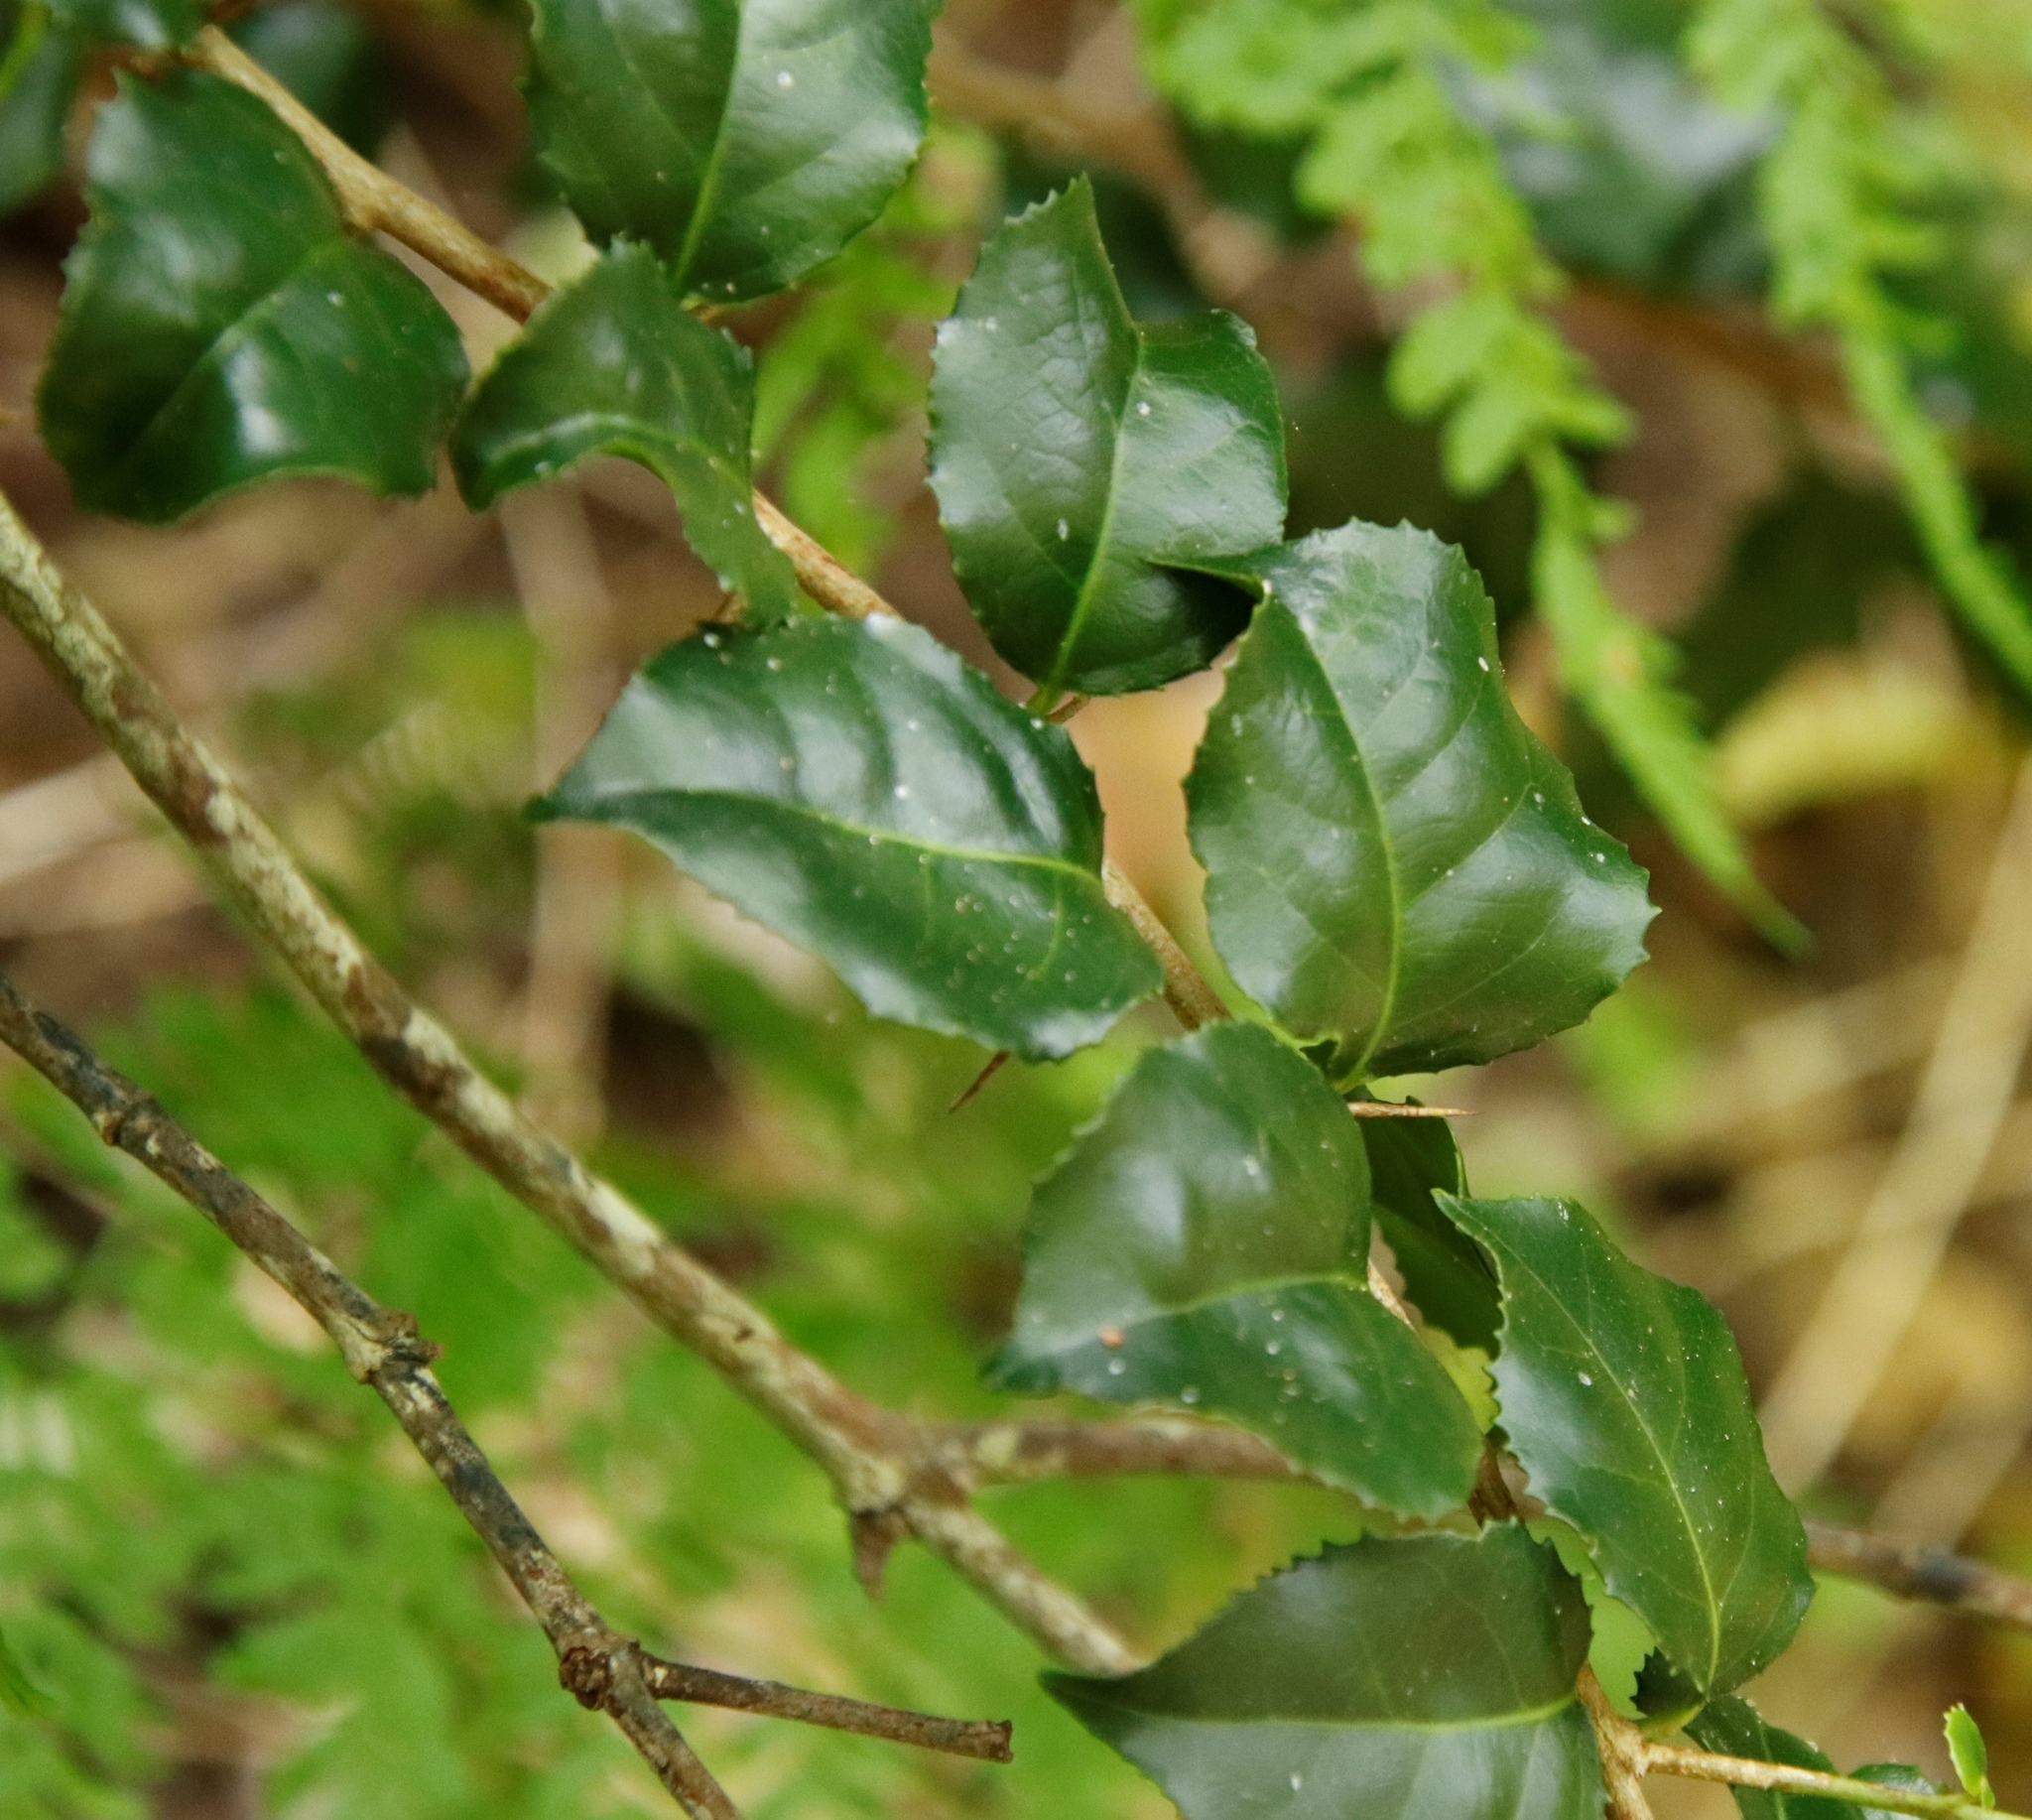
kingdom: Plantae
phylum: Tracheophyta
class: Magnoliopsida
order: Malpighiales
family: Salicaceae
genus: Scolopia
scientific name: Scolopia mundii
